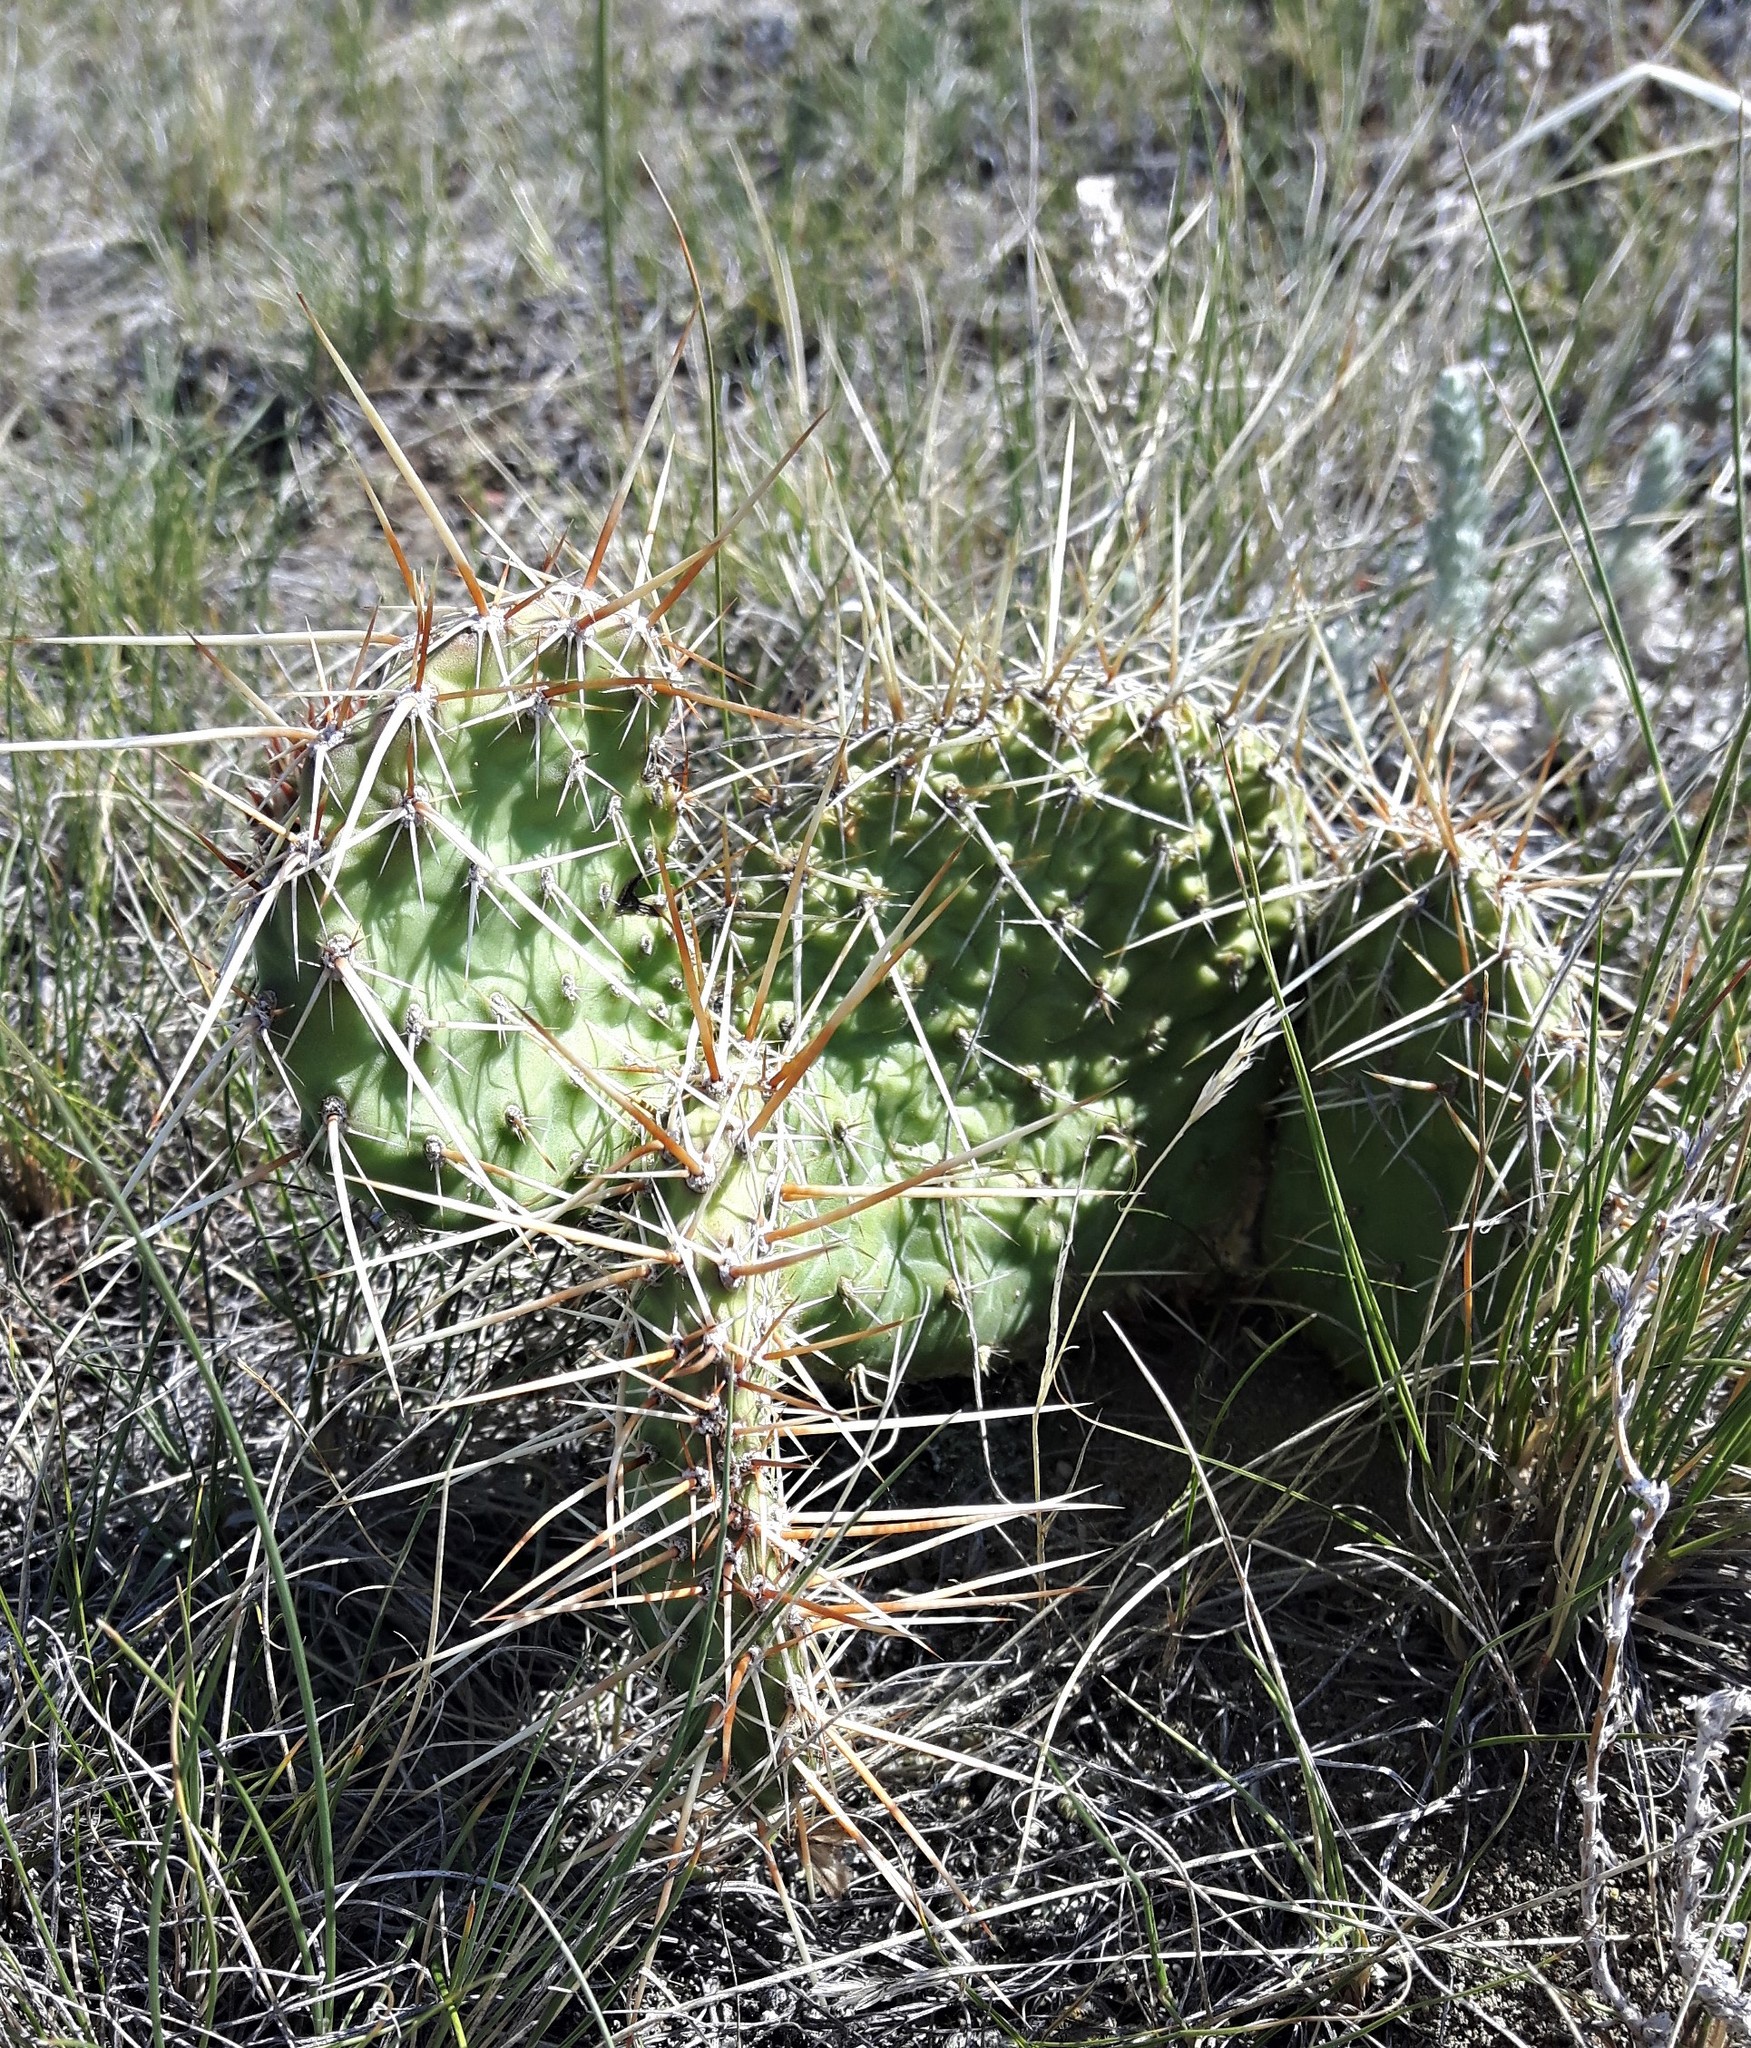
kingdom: Plantae
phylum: Tracheophyta
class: Magnoliopsida
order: Caryophyllales
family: Cactaceae
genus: Opuntia
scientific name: Opuntia polyacantha
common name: Plains prickly-pear
